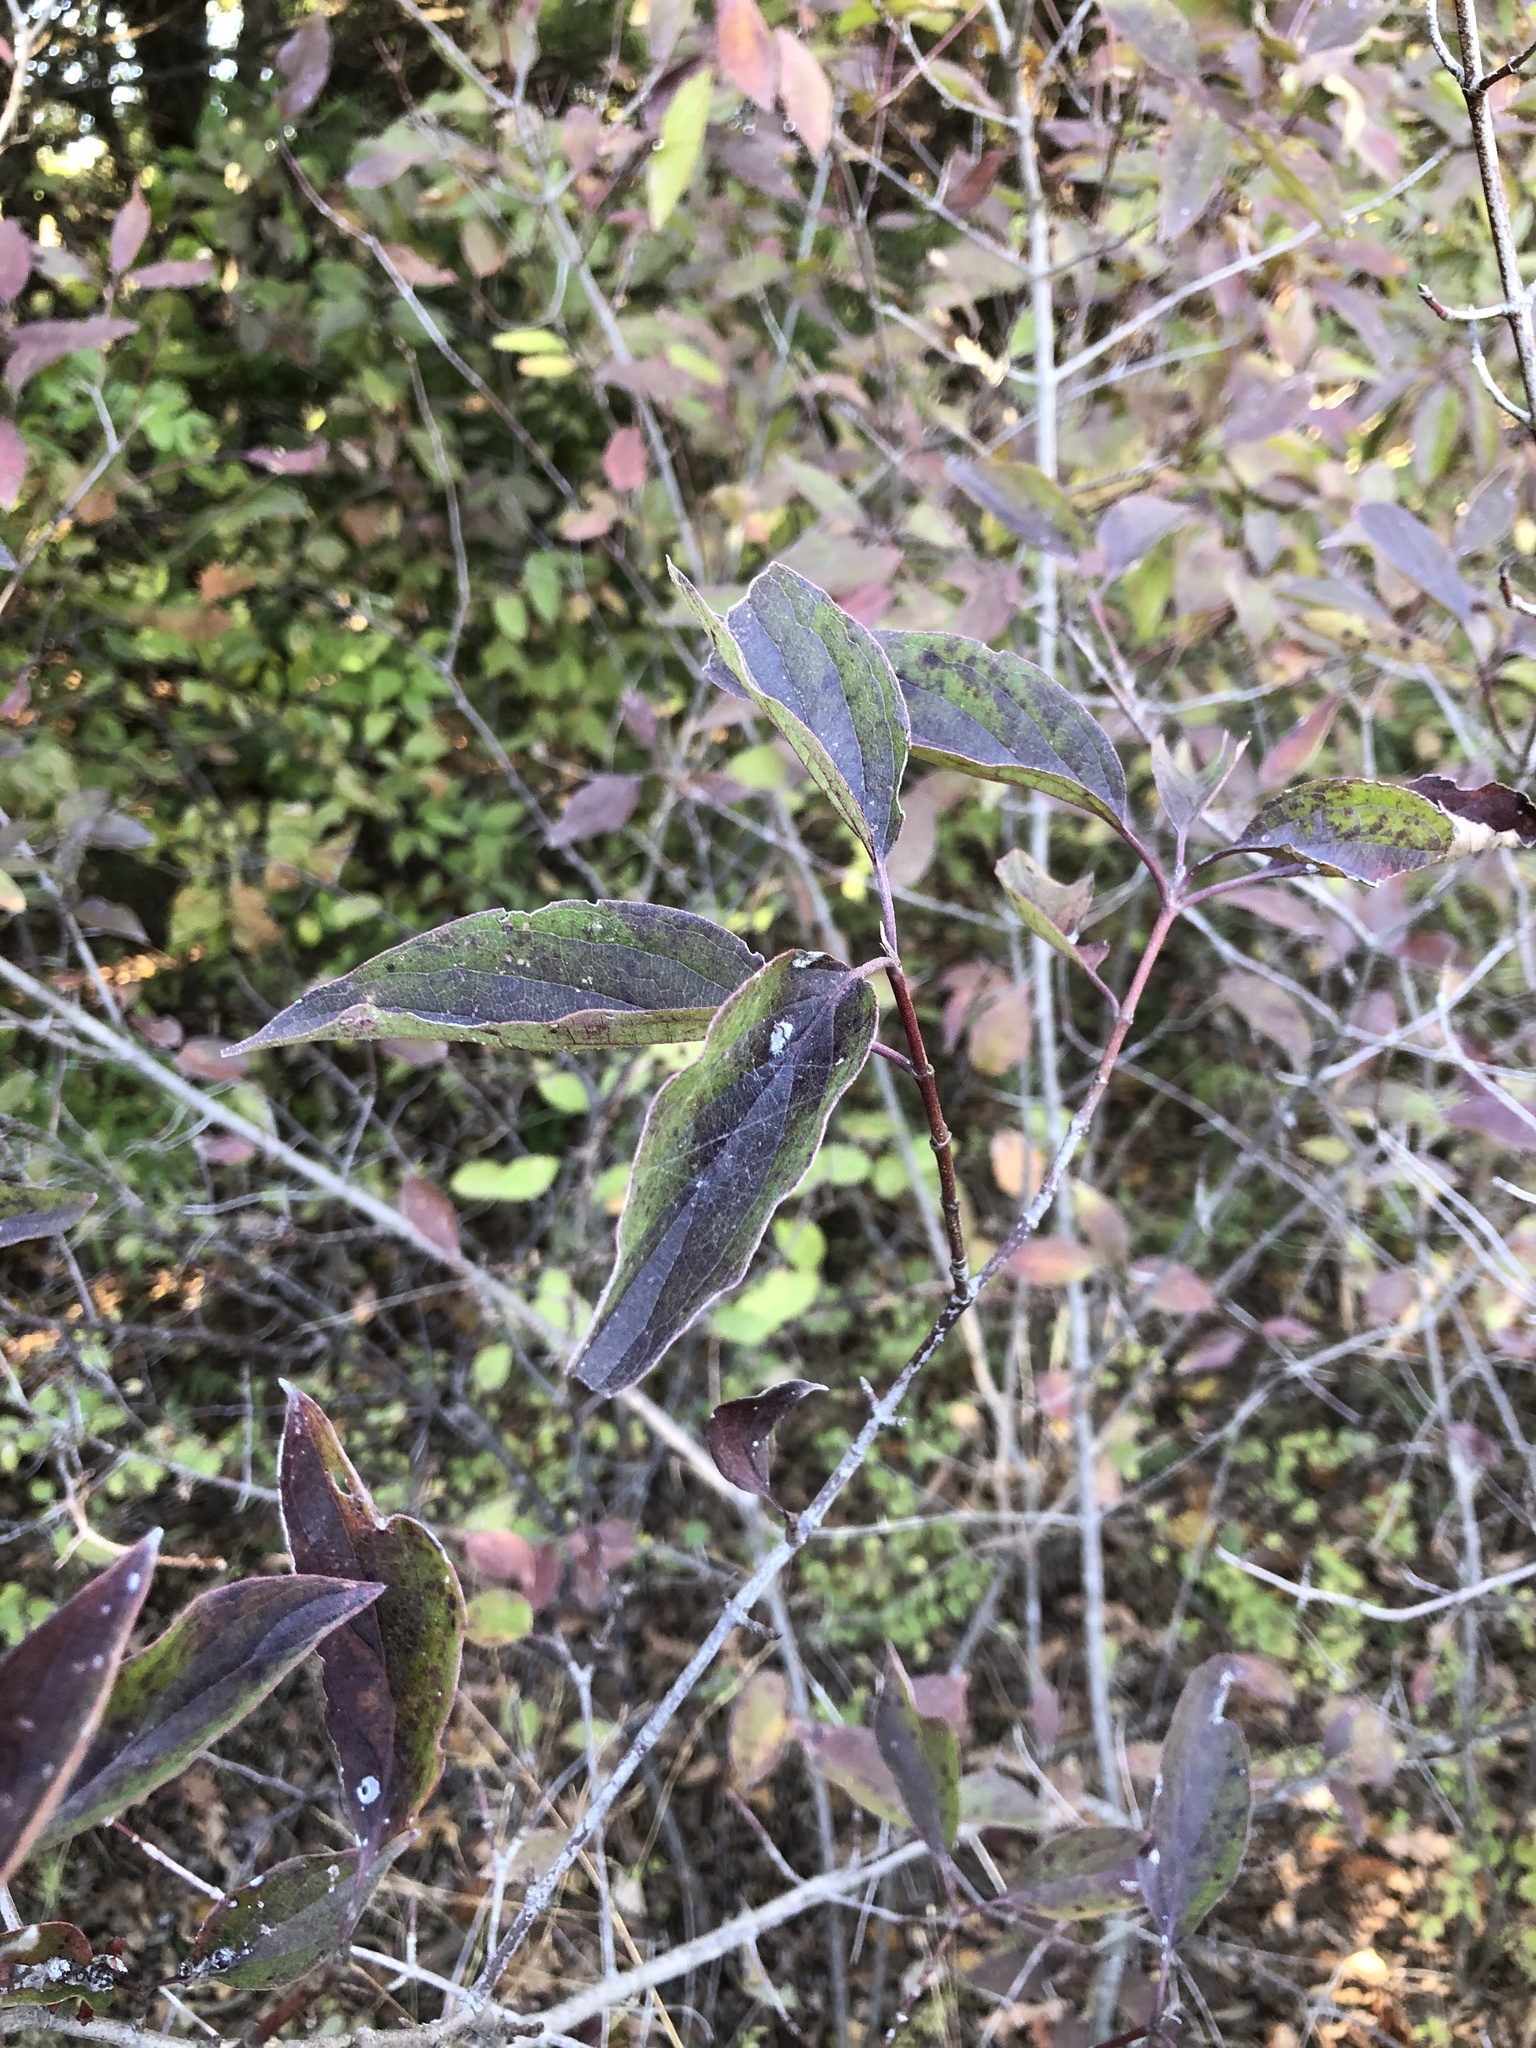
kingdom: Plantae
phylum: Tracheophyta
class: Magnoliopsida
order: Cornales
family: Cornaceae
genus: Cornus
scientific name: Cornus drummondii
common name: Rough-leaf dogwood
